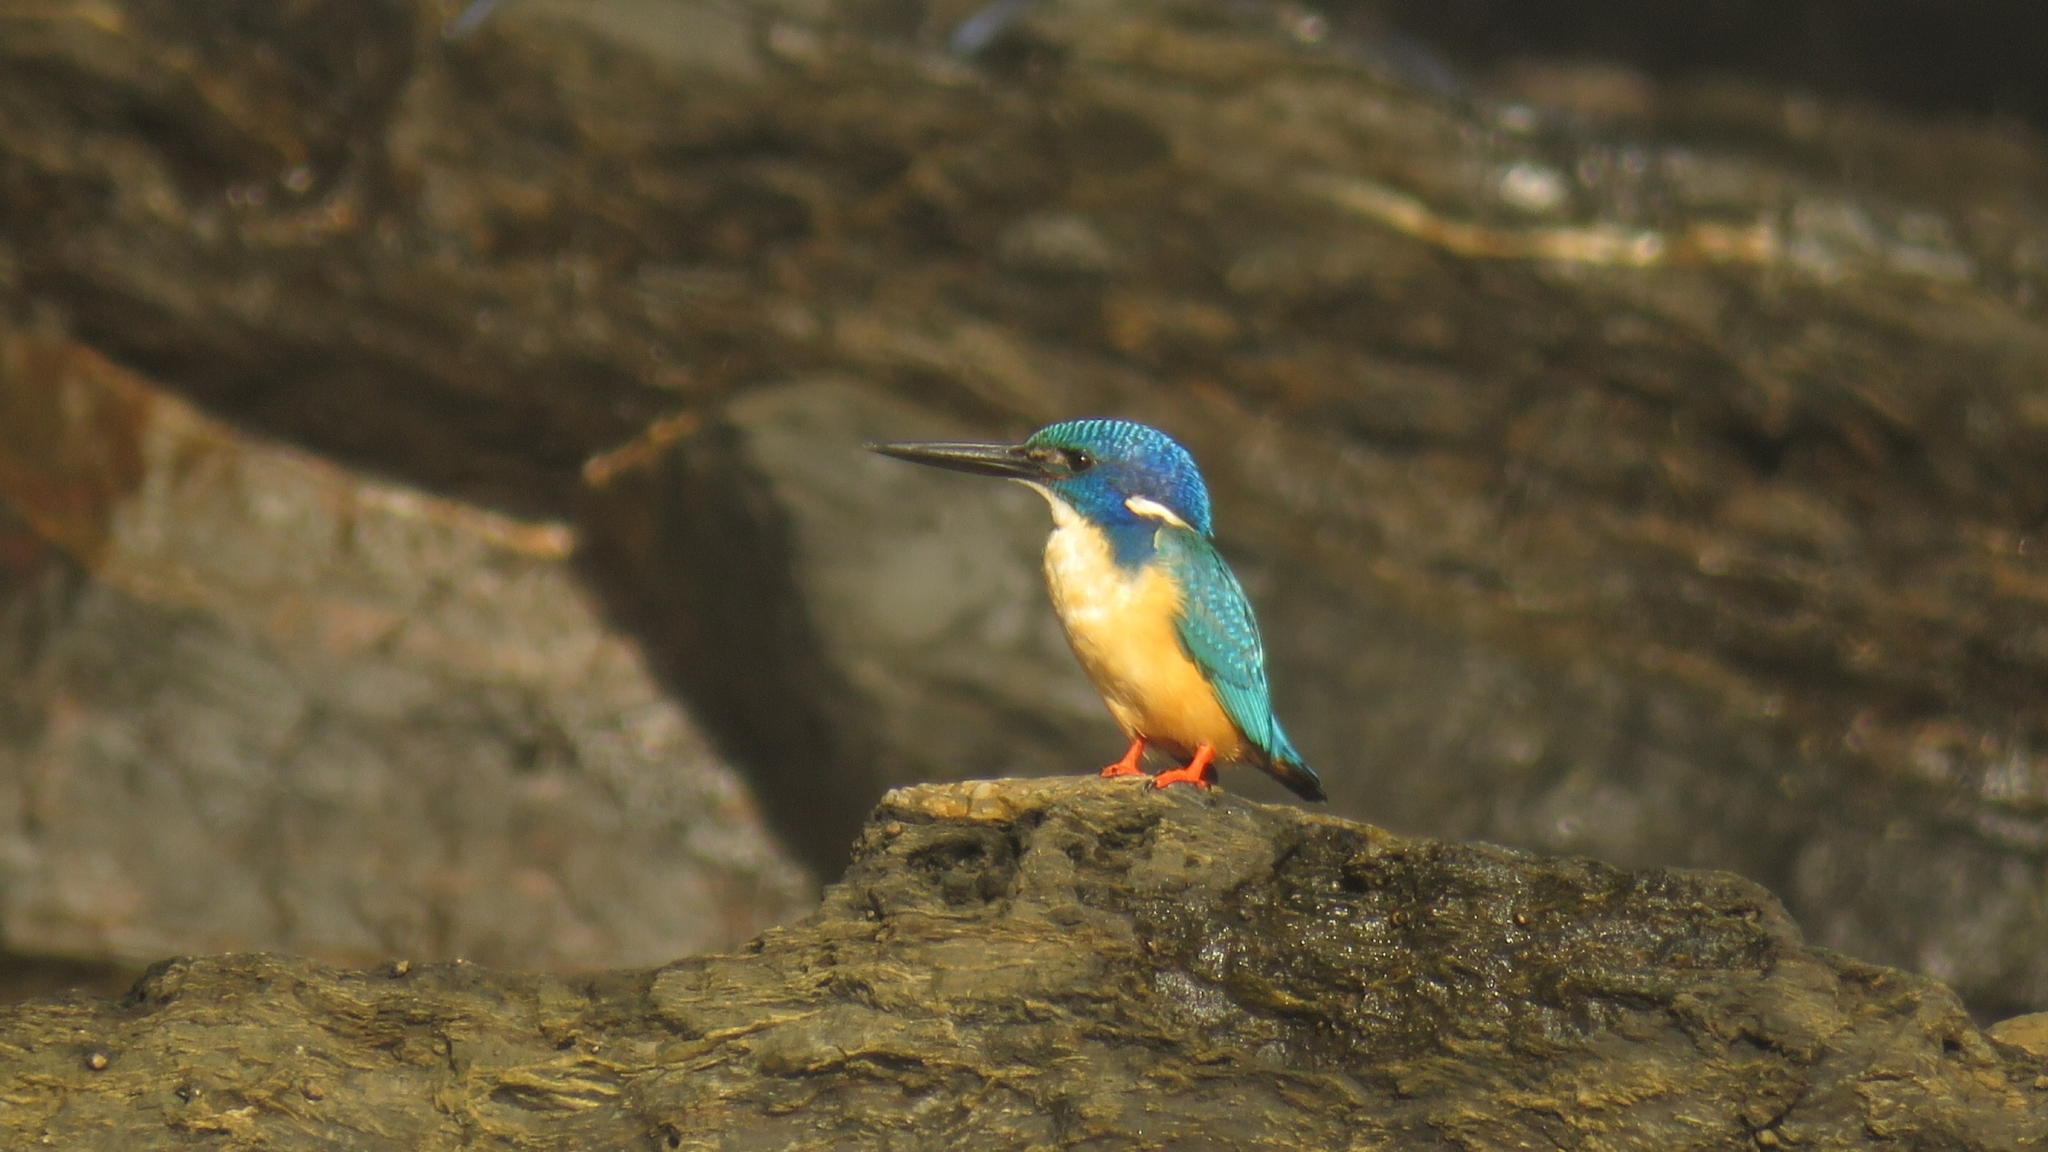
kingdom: Animalia
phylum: Chordata
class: Aves
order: Coraciiformes
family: Alcedinidae
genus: Alcedo
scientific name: Alcedo semitorquata
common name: Half-collared kingfisher
